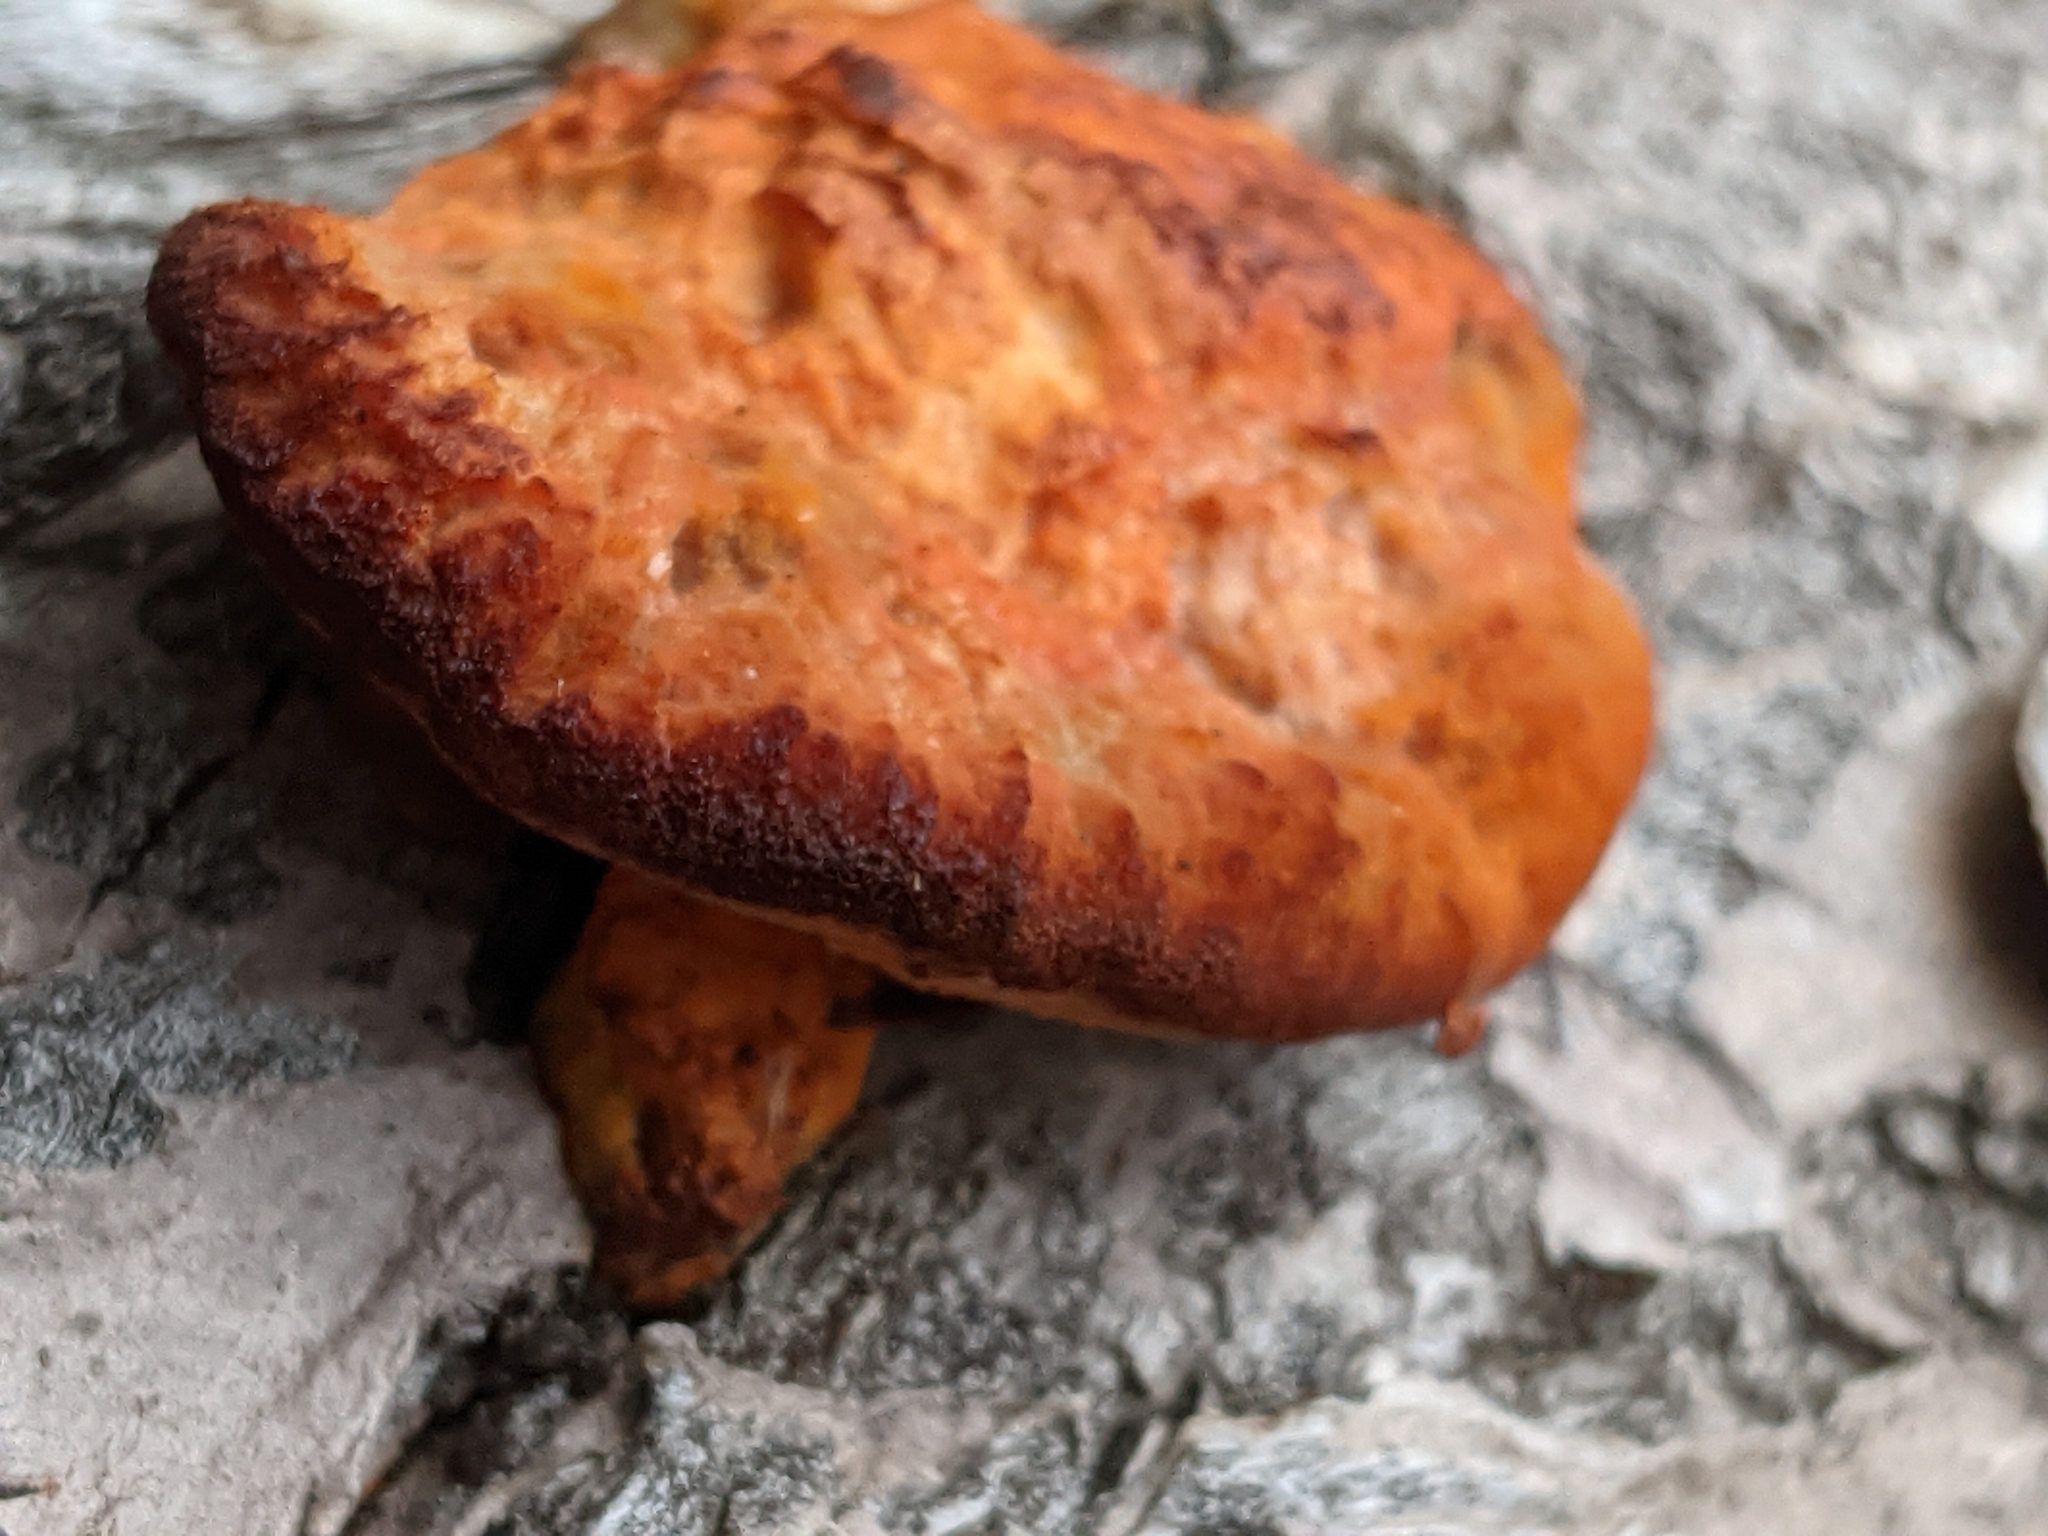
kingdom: Fungi
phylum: Basidiomycota
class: Agaricomycetes
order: Polyporales
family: Polyporaceae
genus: Trametes
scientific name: Trametes cinnabarina
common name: Northern cinnabar polypore
